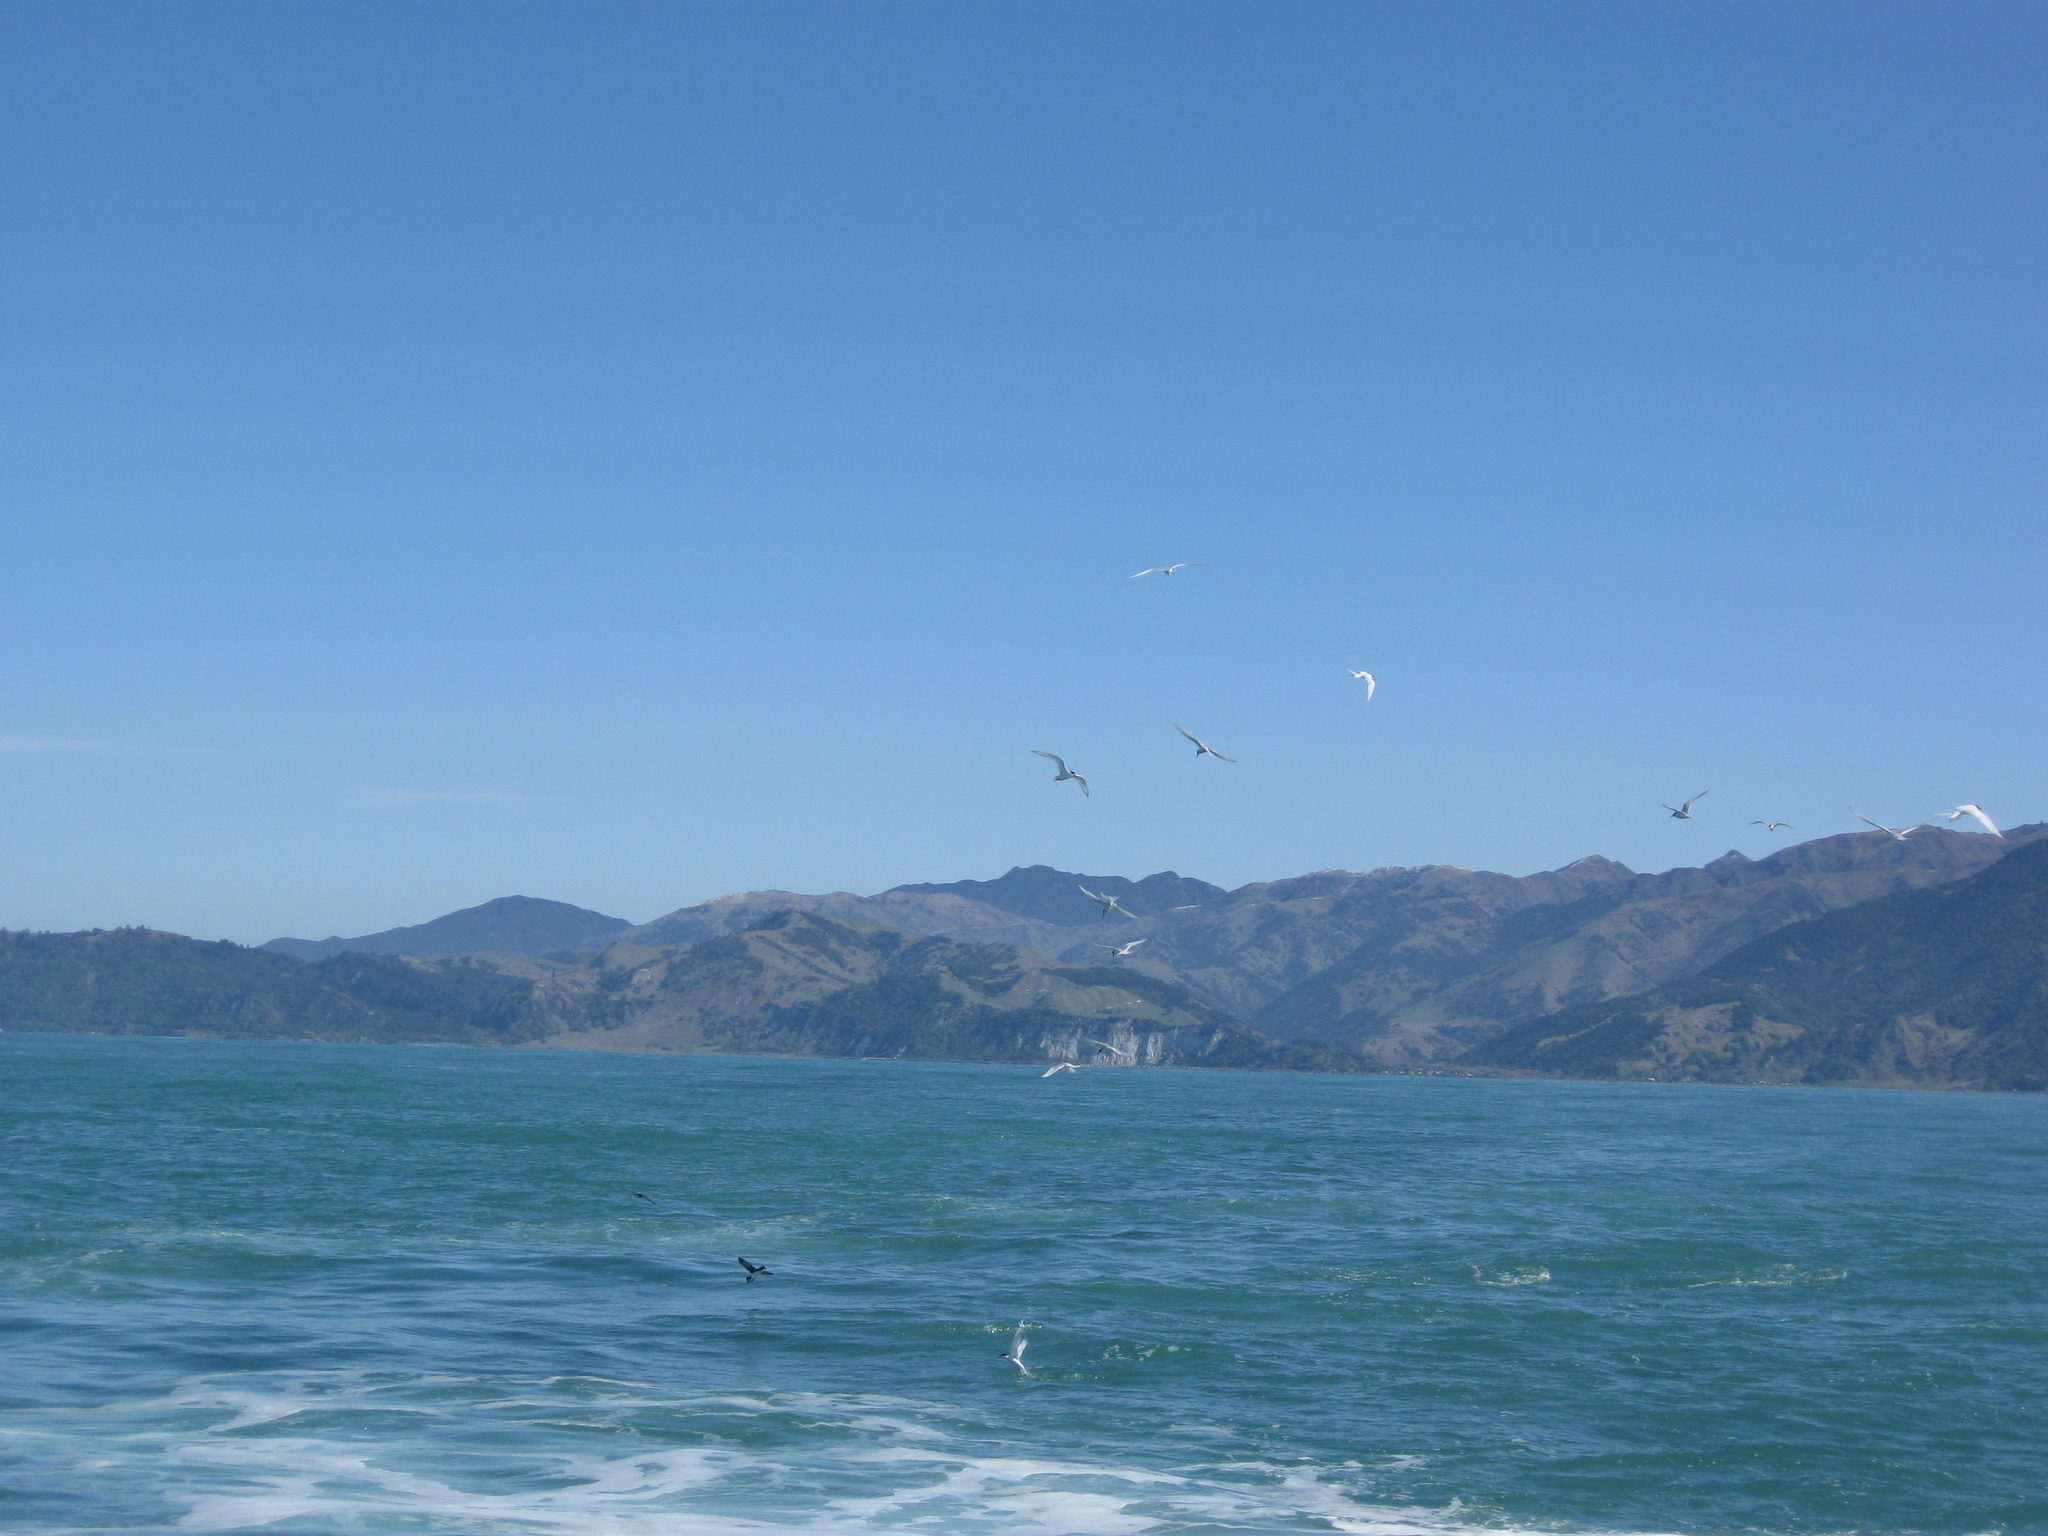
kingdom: Animalia
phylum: Chordata
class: Aves
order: Charadriiformes
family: Laridae
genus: Sterna
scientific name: Sterna striata
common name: White-fronted tern
